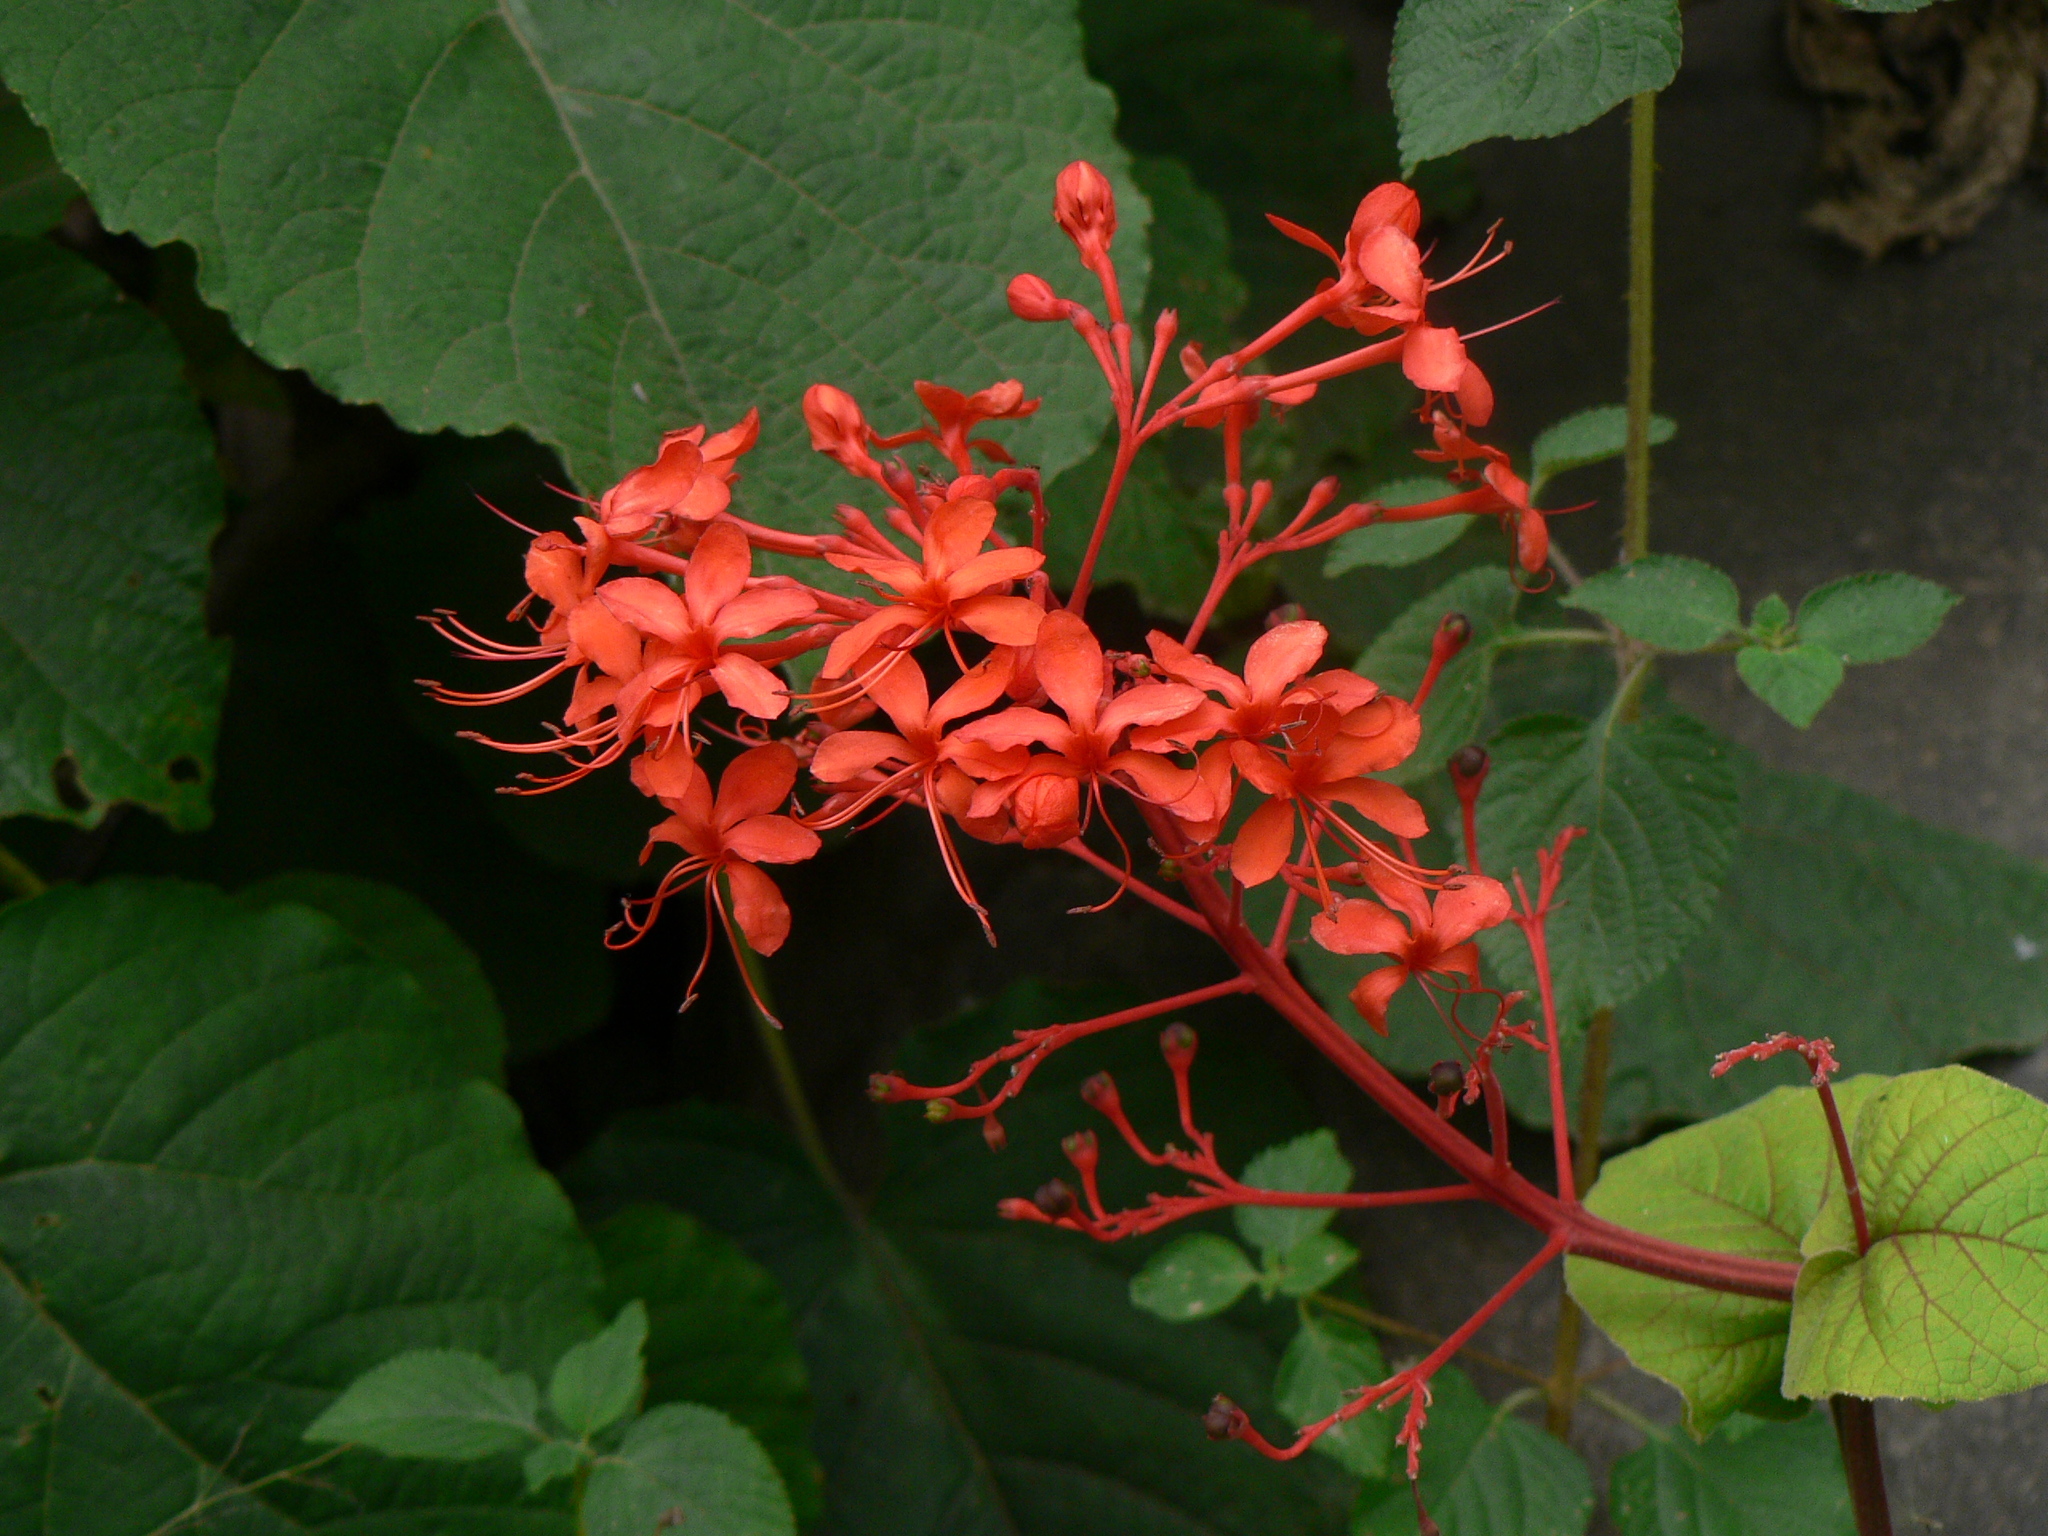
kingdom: Plantae
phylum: Tracheophyta
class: Magnoliopsida
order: Lamiales
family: Lamiaceae
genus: Clerodendrum
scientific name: Clerodendrum speciosissimum
